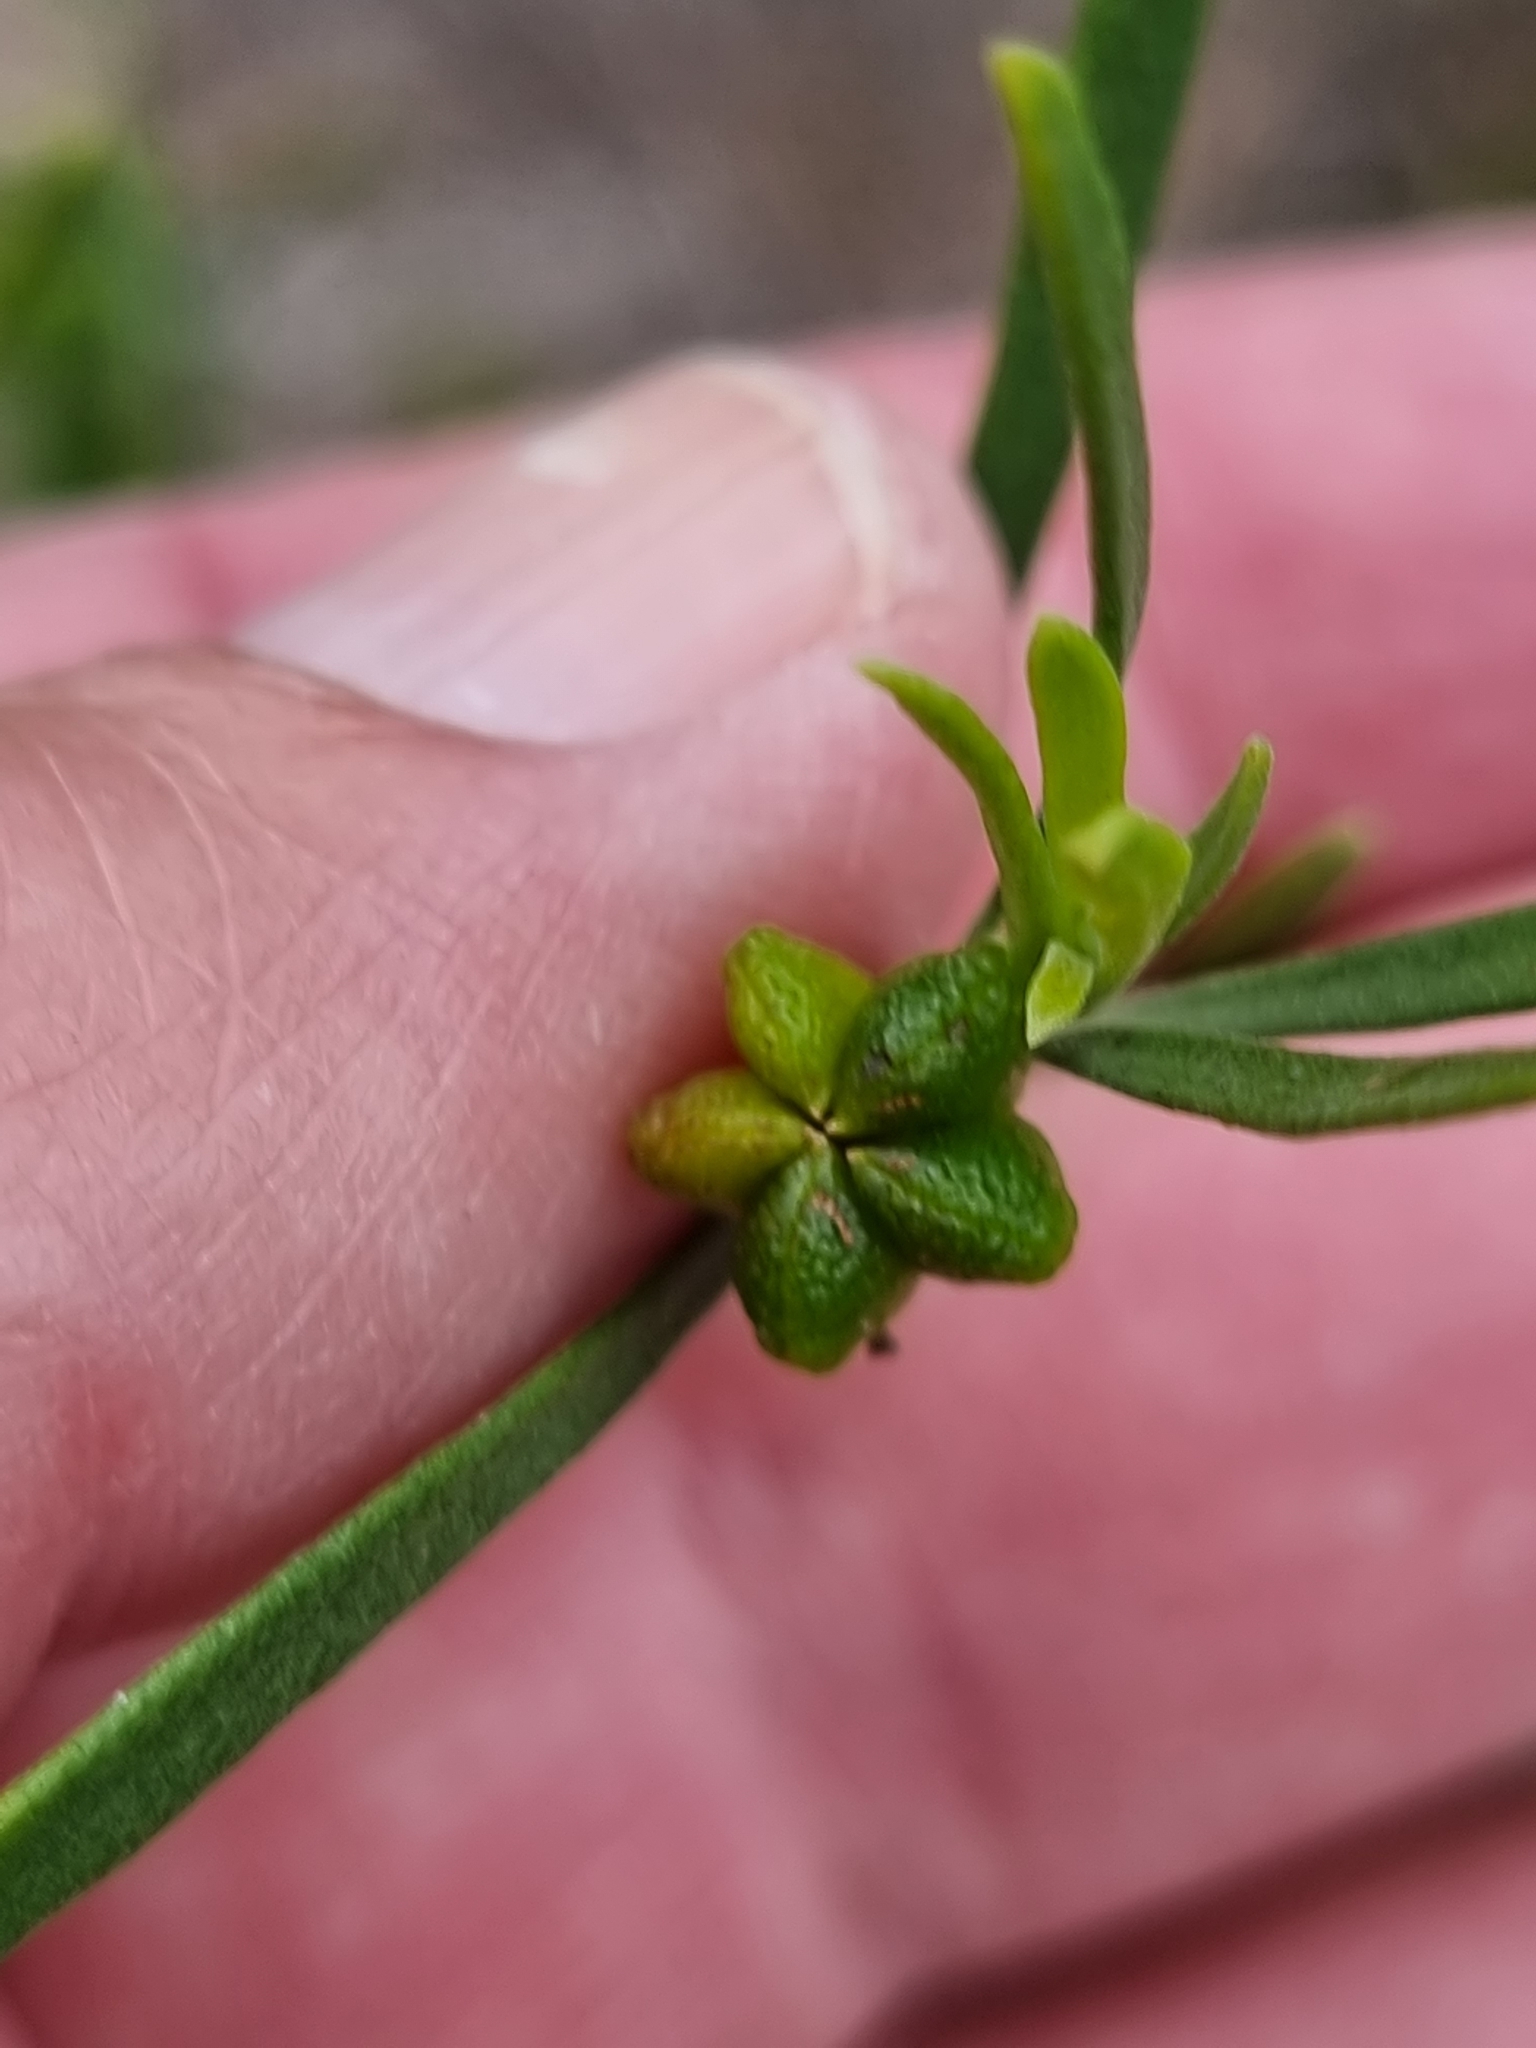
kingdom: Plantae
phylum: Tracheophyta
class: Magnoliopsida
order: Sapindales
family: Rutaceae
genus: Eriostemon
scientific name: Eriostemon australasius
